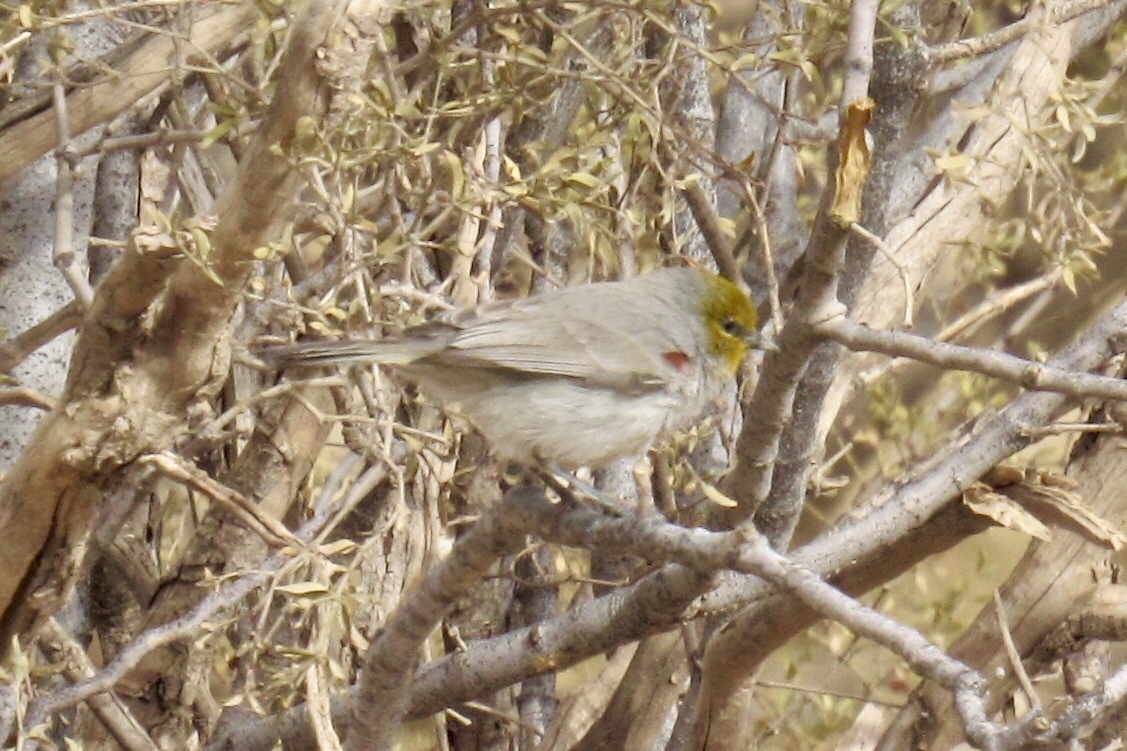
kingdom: Animalia
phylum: Chordata
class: Aves
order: Passeriformes
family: Remizidae
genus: Auriparus
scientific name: Auriparus flaviceps
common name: Verdin
